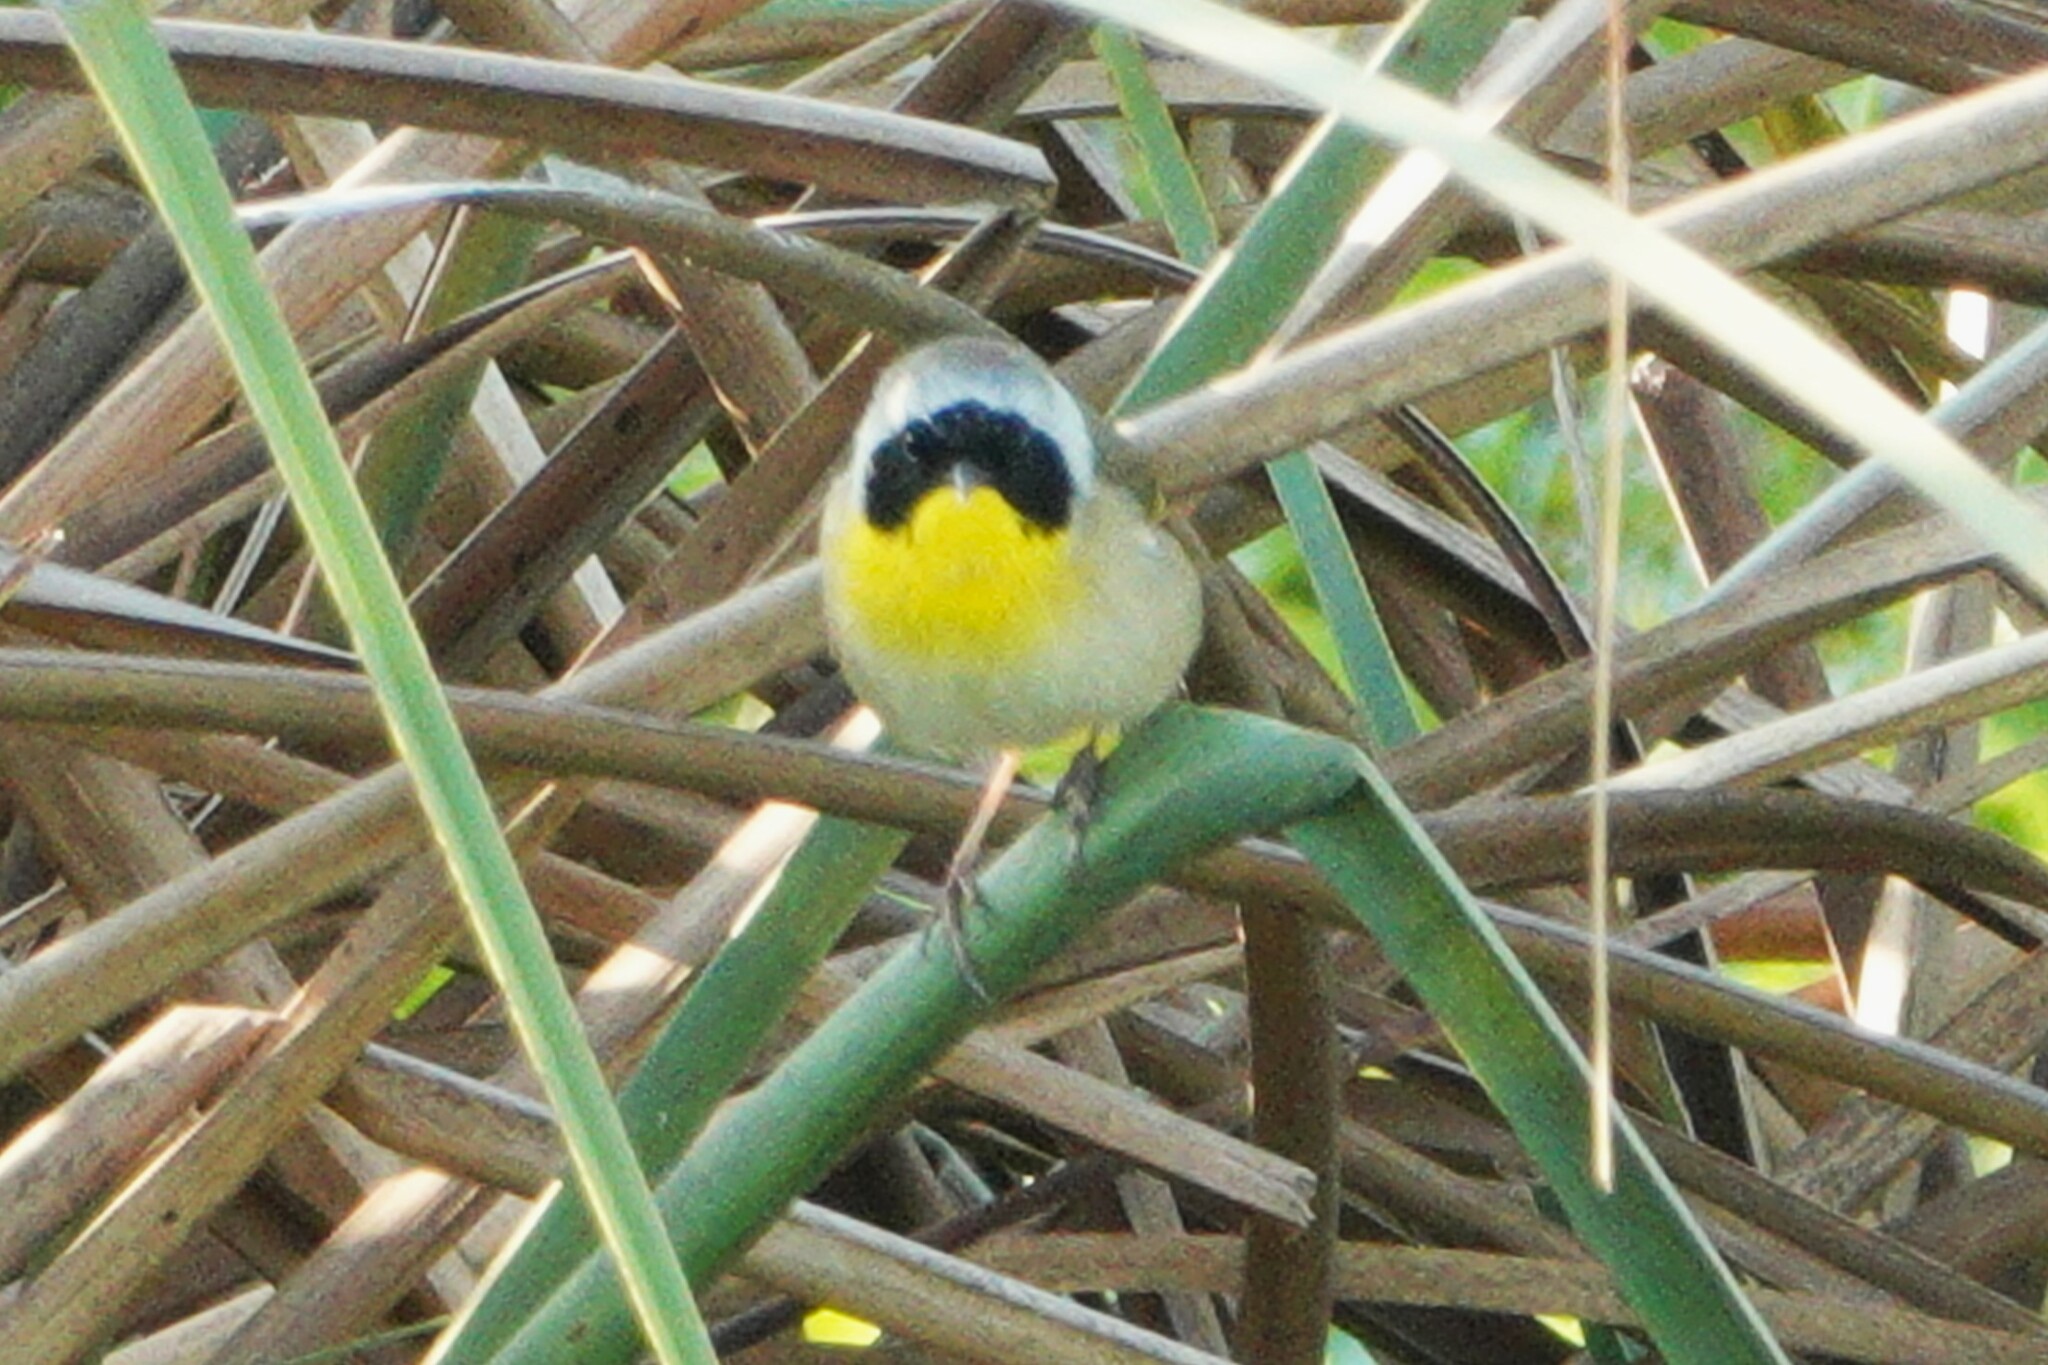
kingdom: Animalia
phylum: Chordata
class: Aves
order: Passeriformes
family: Parulidae
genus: Geothlypis
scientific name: Geothlypis trichas
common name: Common yellowthroat
